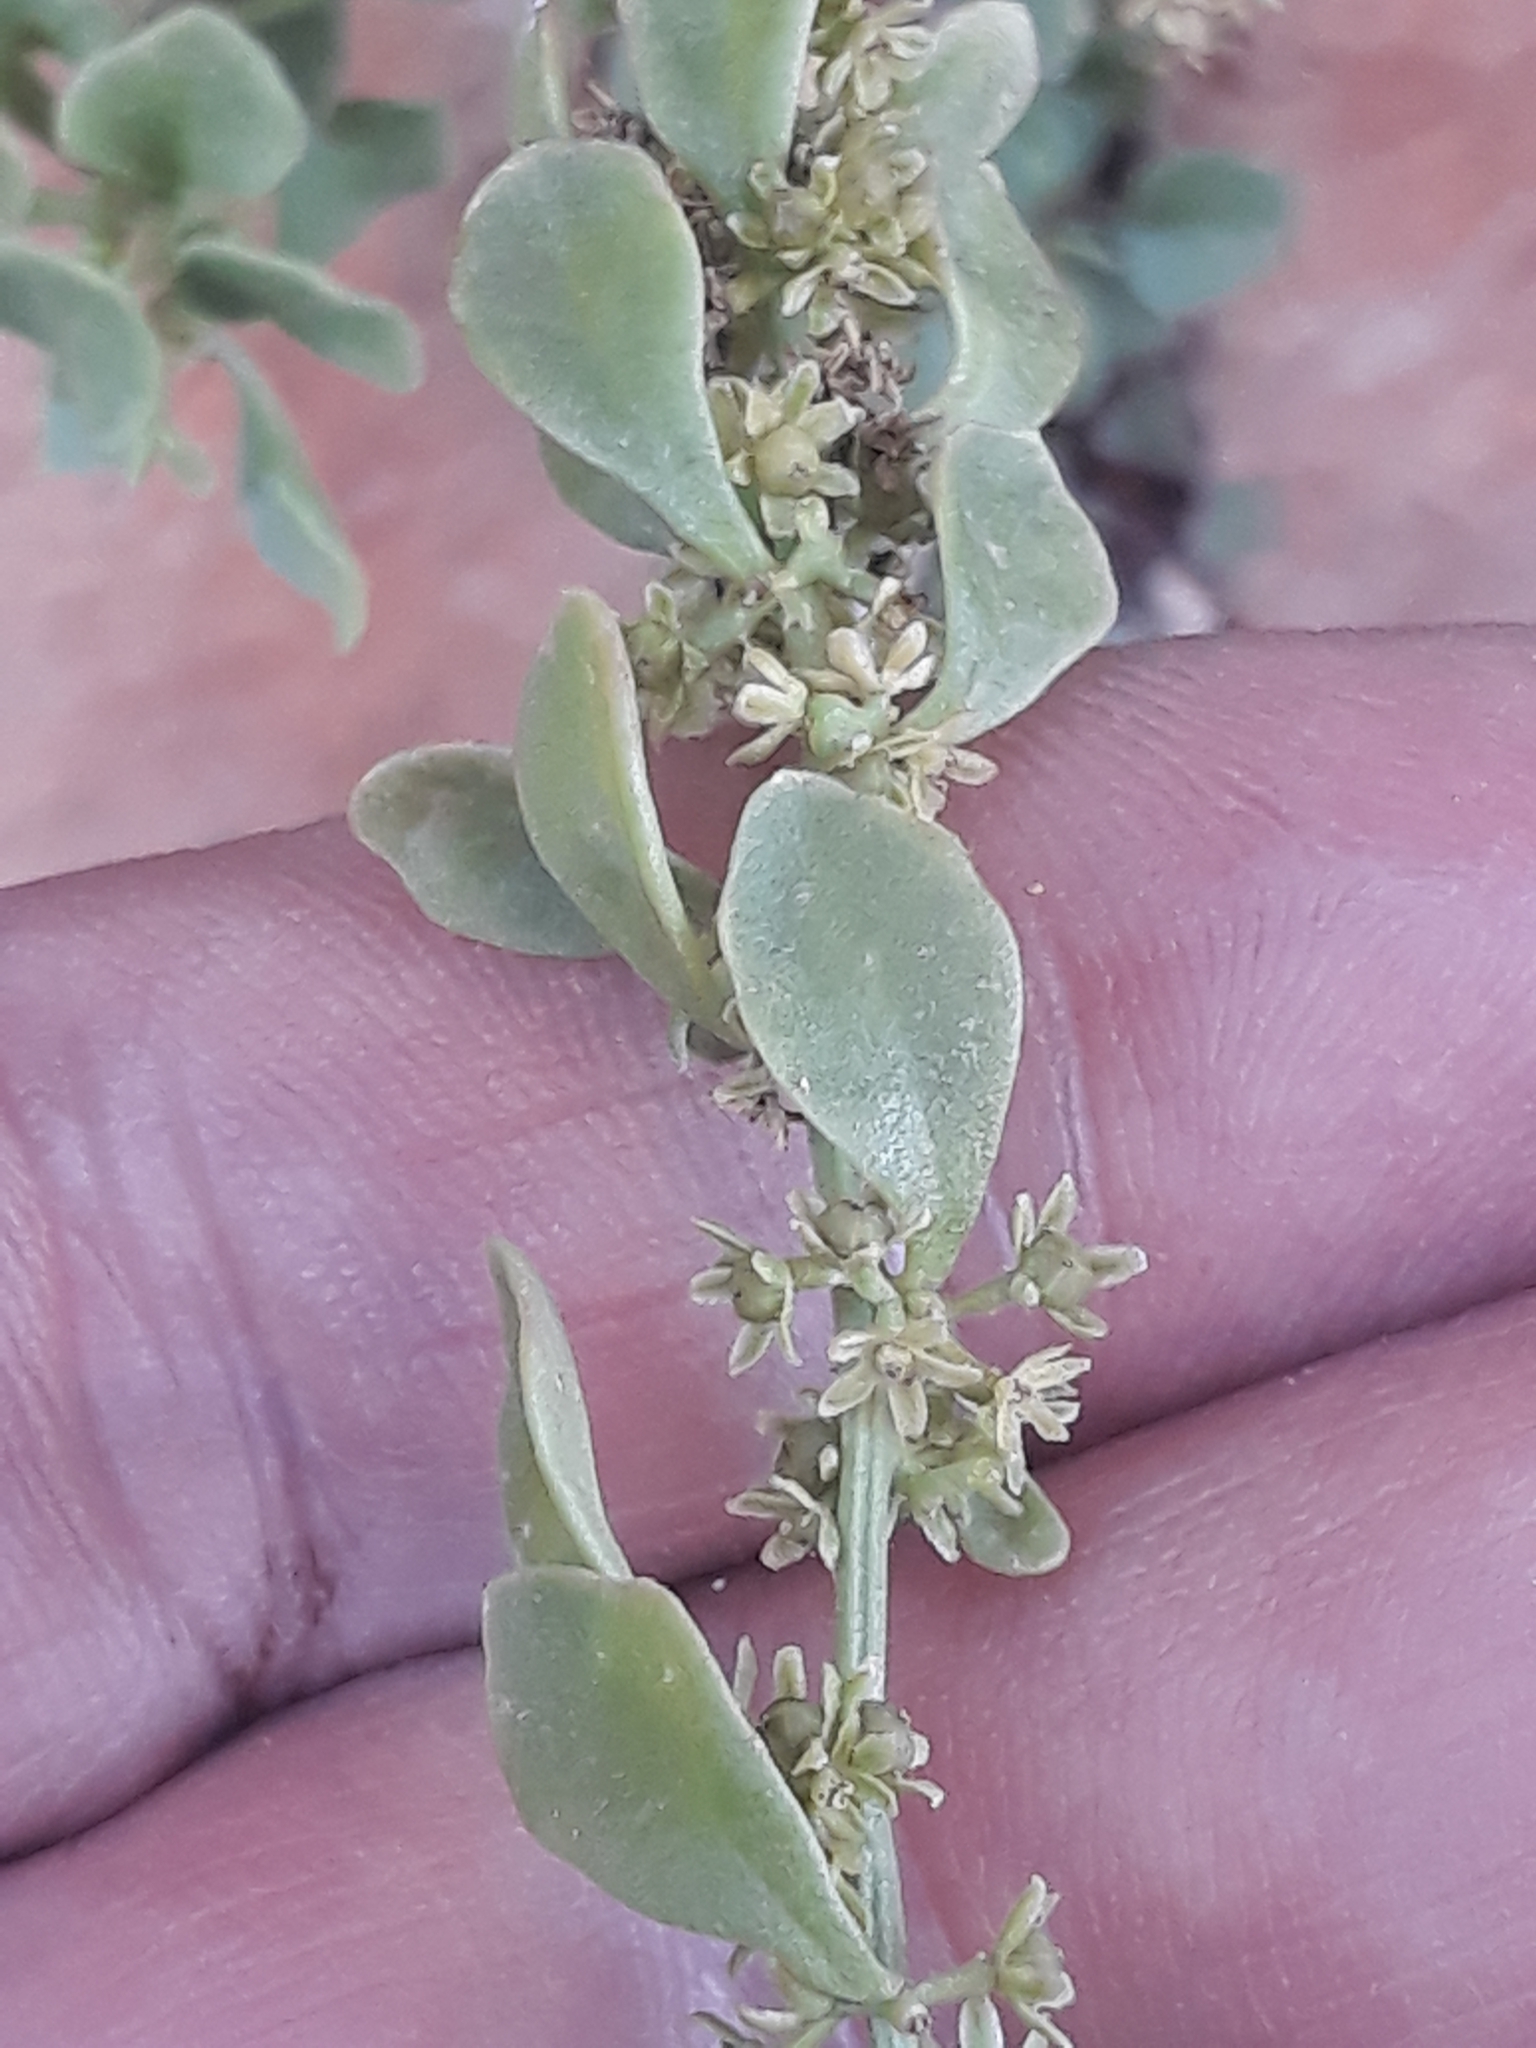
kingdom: Plantae
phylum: Tracheophyta
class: Magnoliopsida
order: Caryophyllales
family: Amaranthaceae
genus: Oreobliton
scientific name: Oreobliton thesioides
